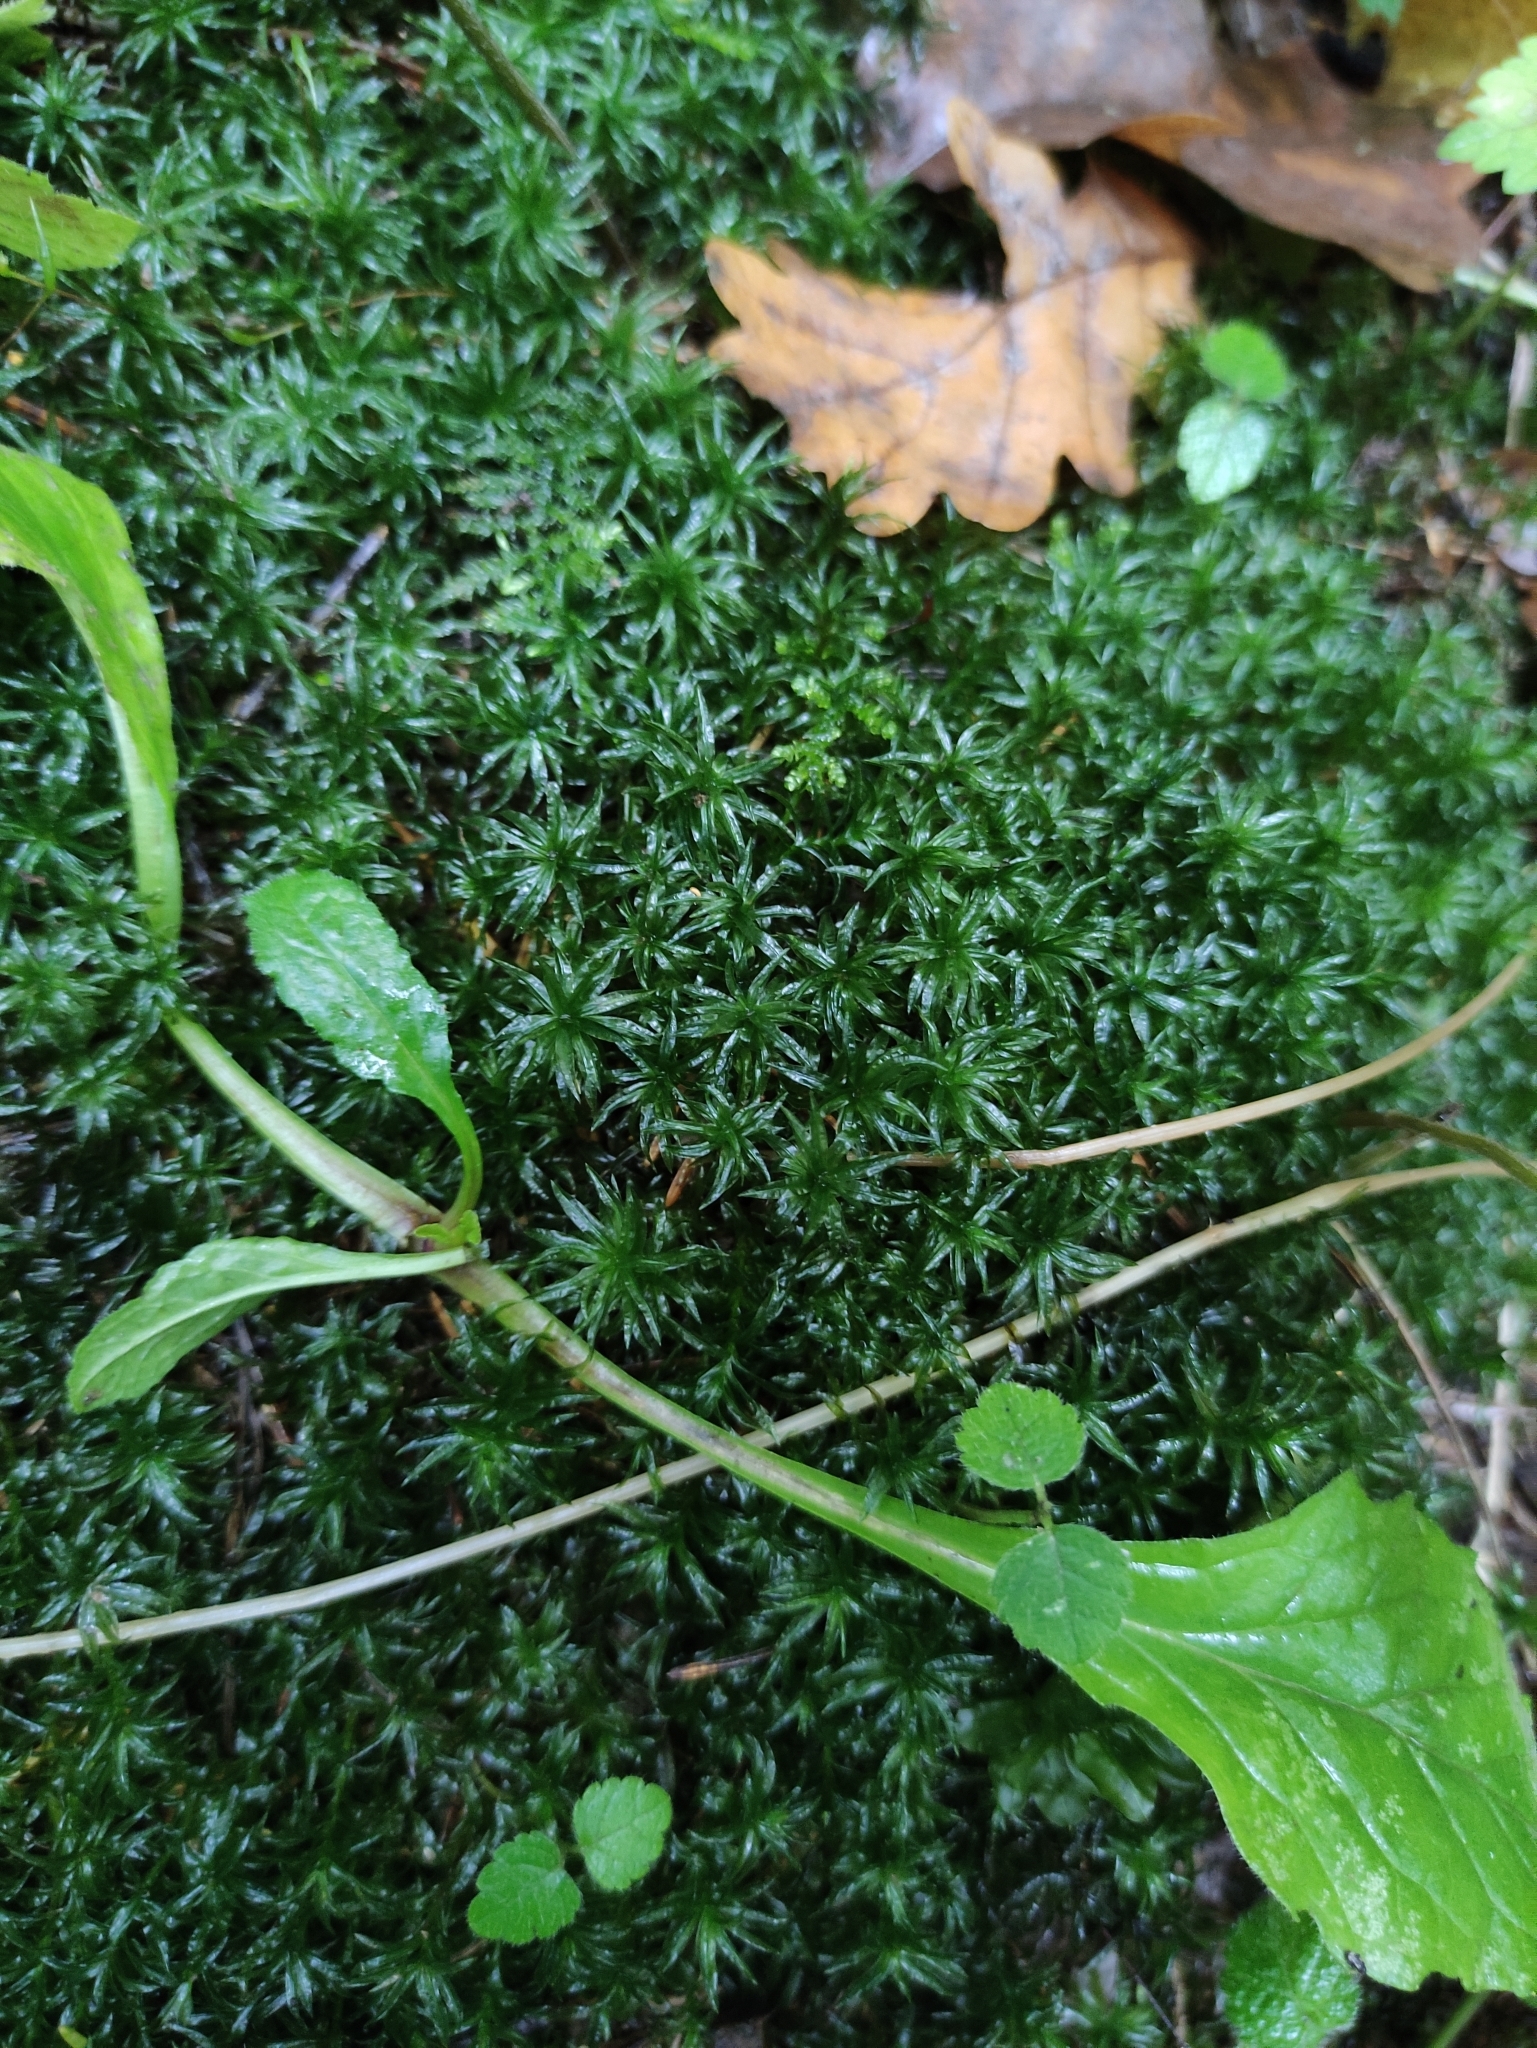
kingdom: Plantae
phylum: Bryophyta
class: Polytrichopsida
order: Polytrichales
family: Polytrichaceae
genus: Atrichum
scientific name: Atrichum undulatum
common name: Common smoothcap
